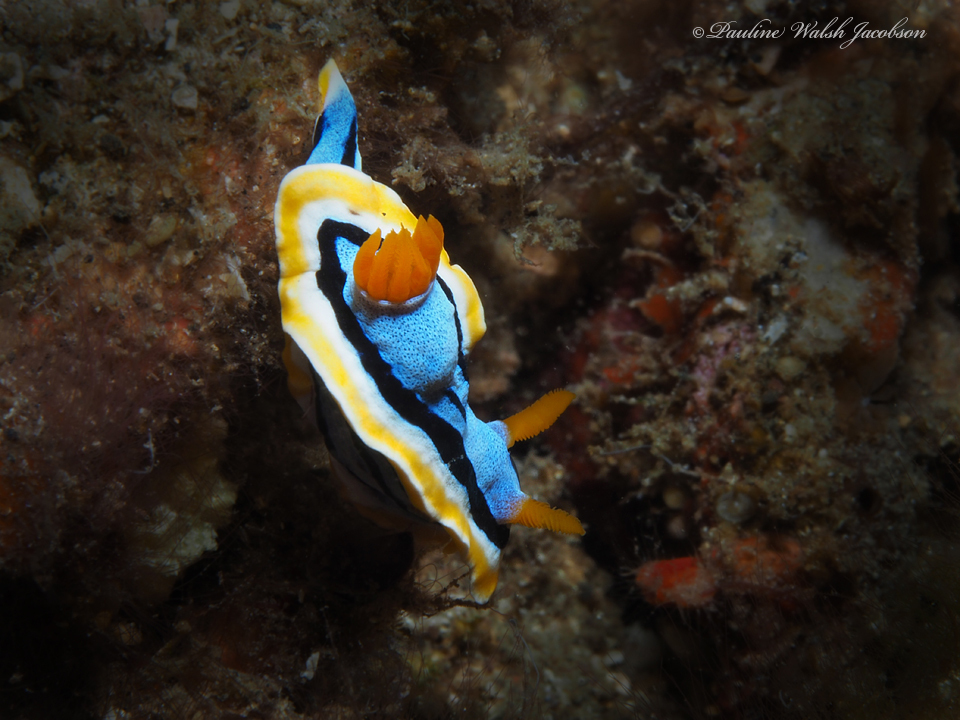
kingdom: Animalia
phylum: Mollusca
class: Gastropoda
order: Nudibranchia
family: Chromodorididae
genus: Chromodoris
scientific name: Chromodoris annae
